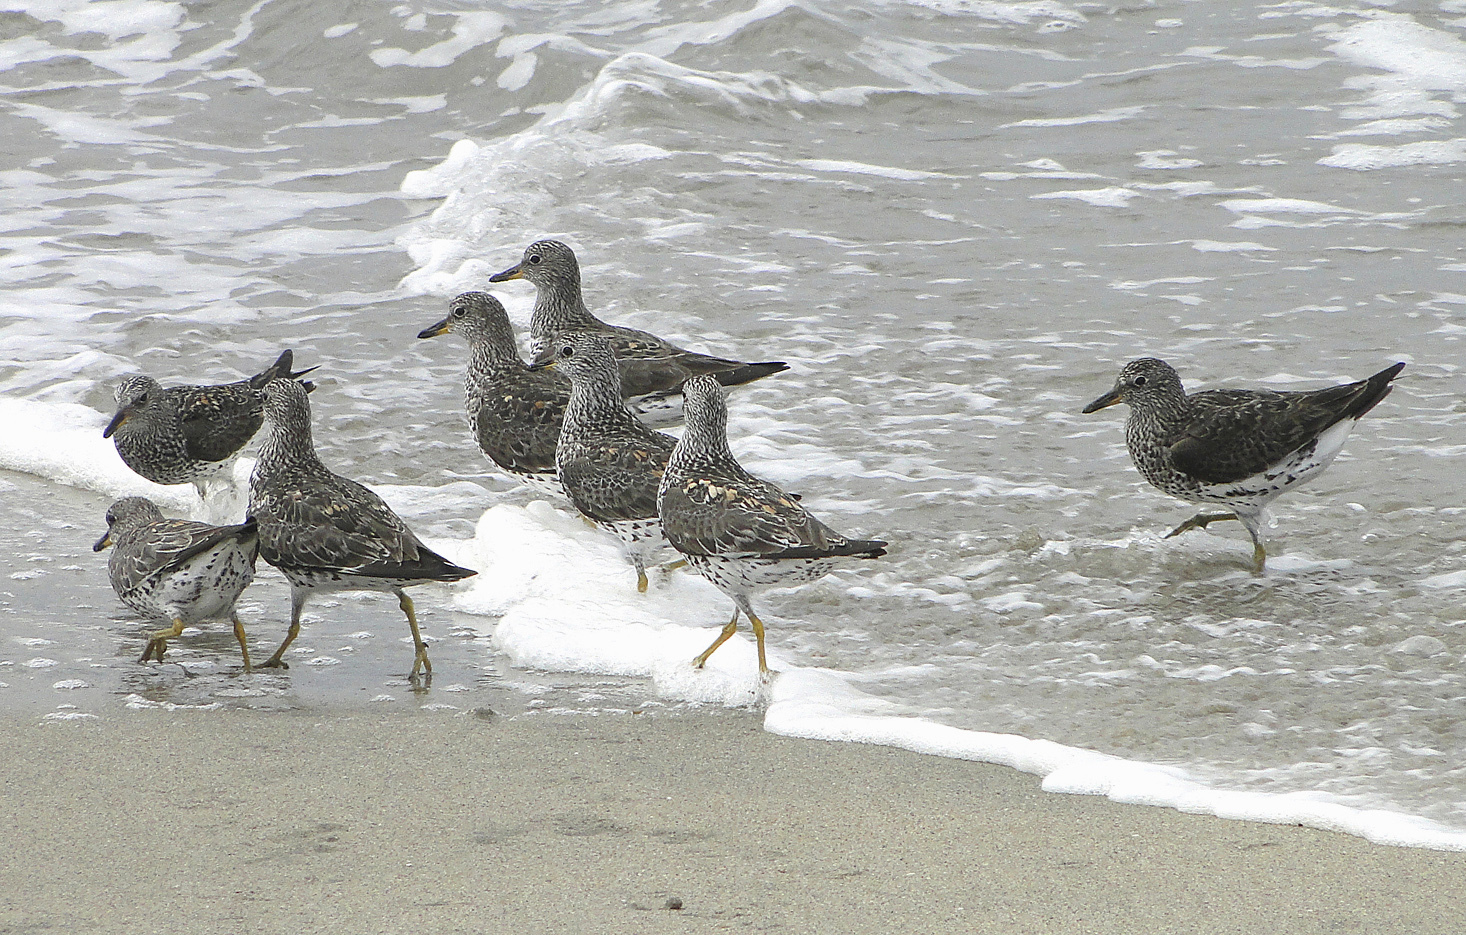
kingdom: Animalia
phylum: Chordata
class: Aves
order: Charadriiformes
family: Scolopacidae
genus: Calidris
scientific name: Calidris virgata
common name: Surfbird
